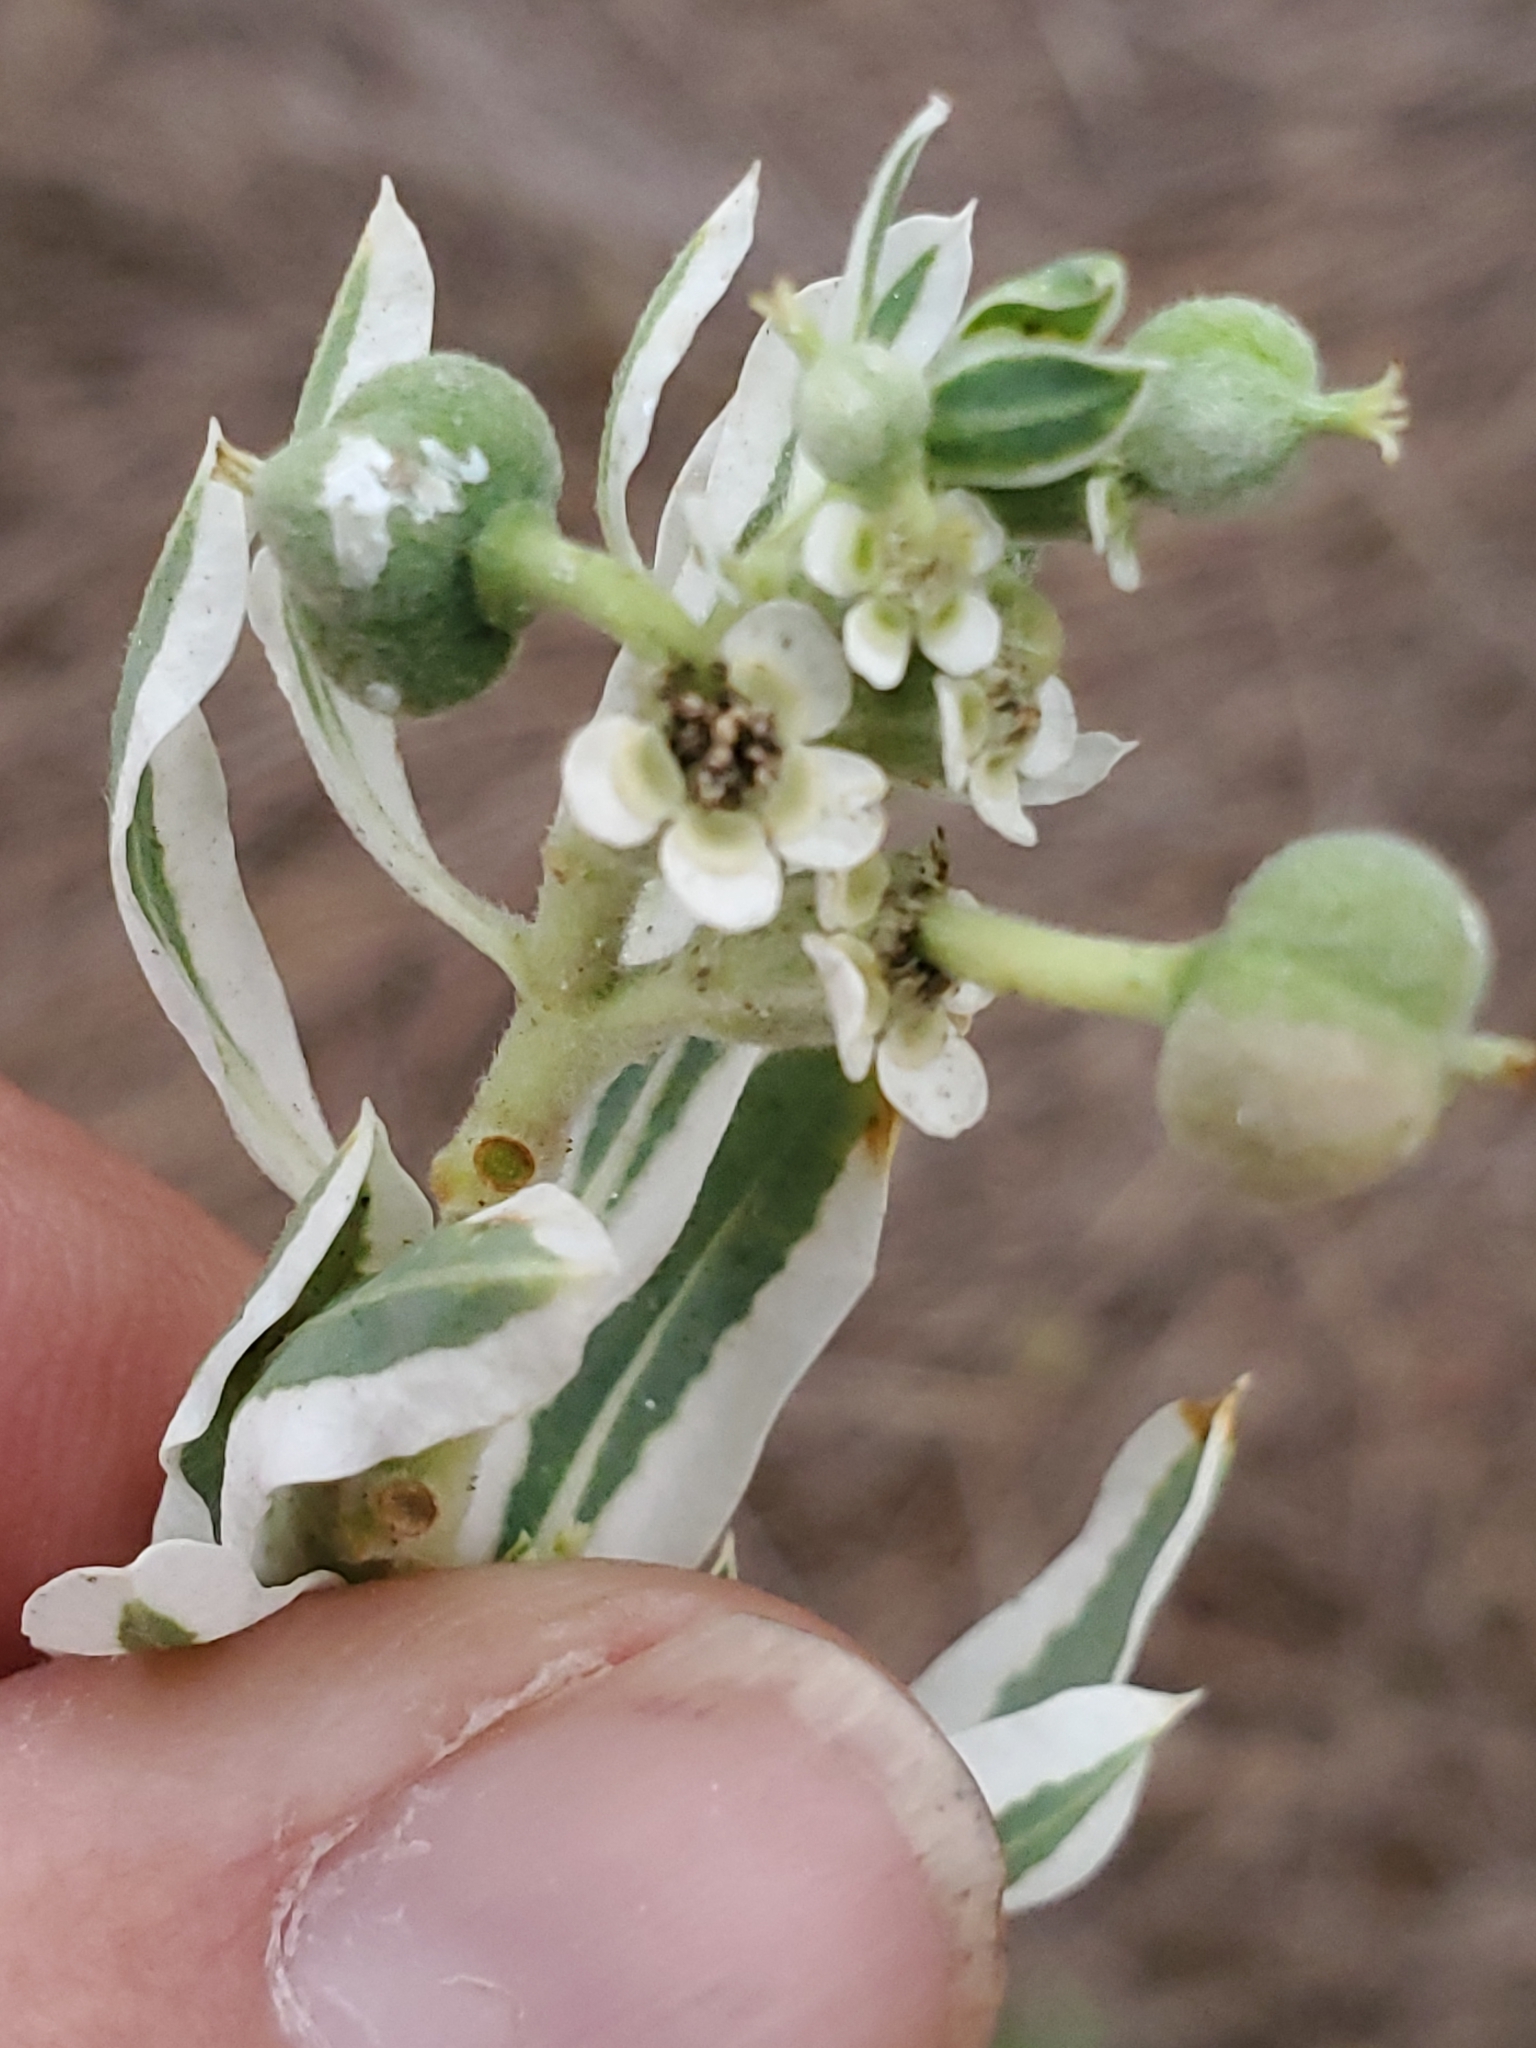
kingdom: Plantae
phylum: Tracheophyta
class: Magnoliopsida
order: Malpighiales
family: Euphorbiaceae
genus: Euphorbia
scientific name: Euphorbia marginata
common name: Ghostweed
